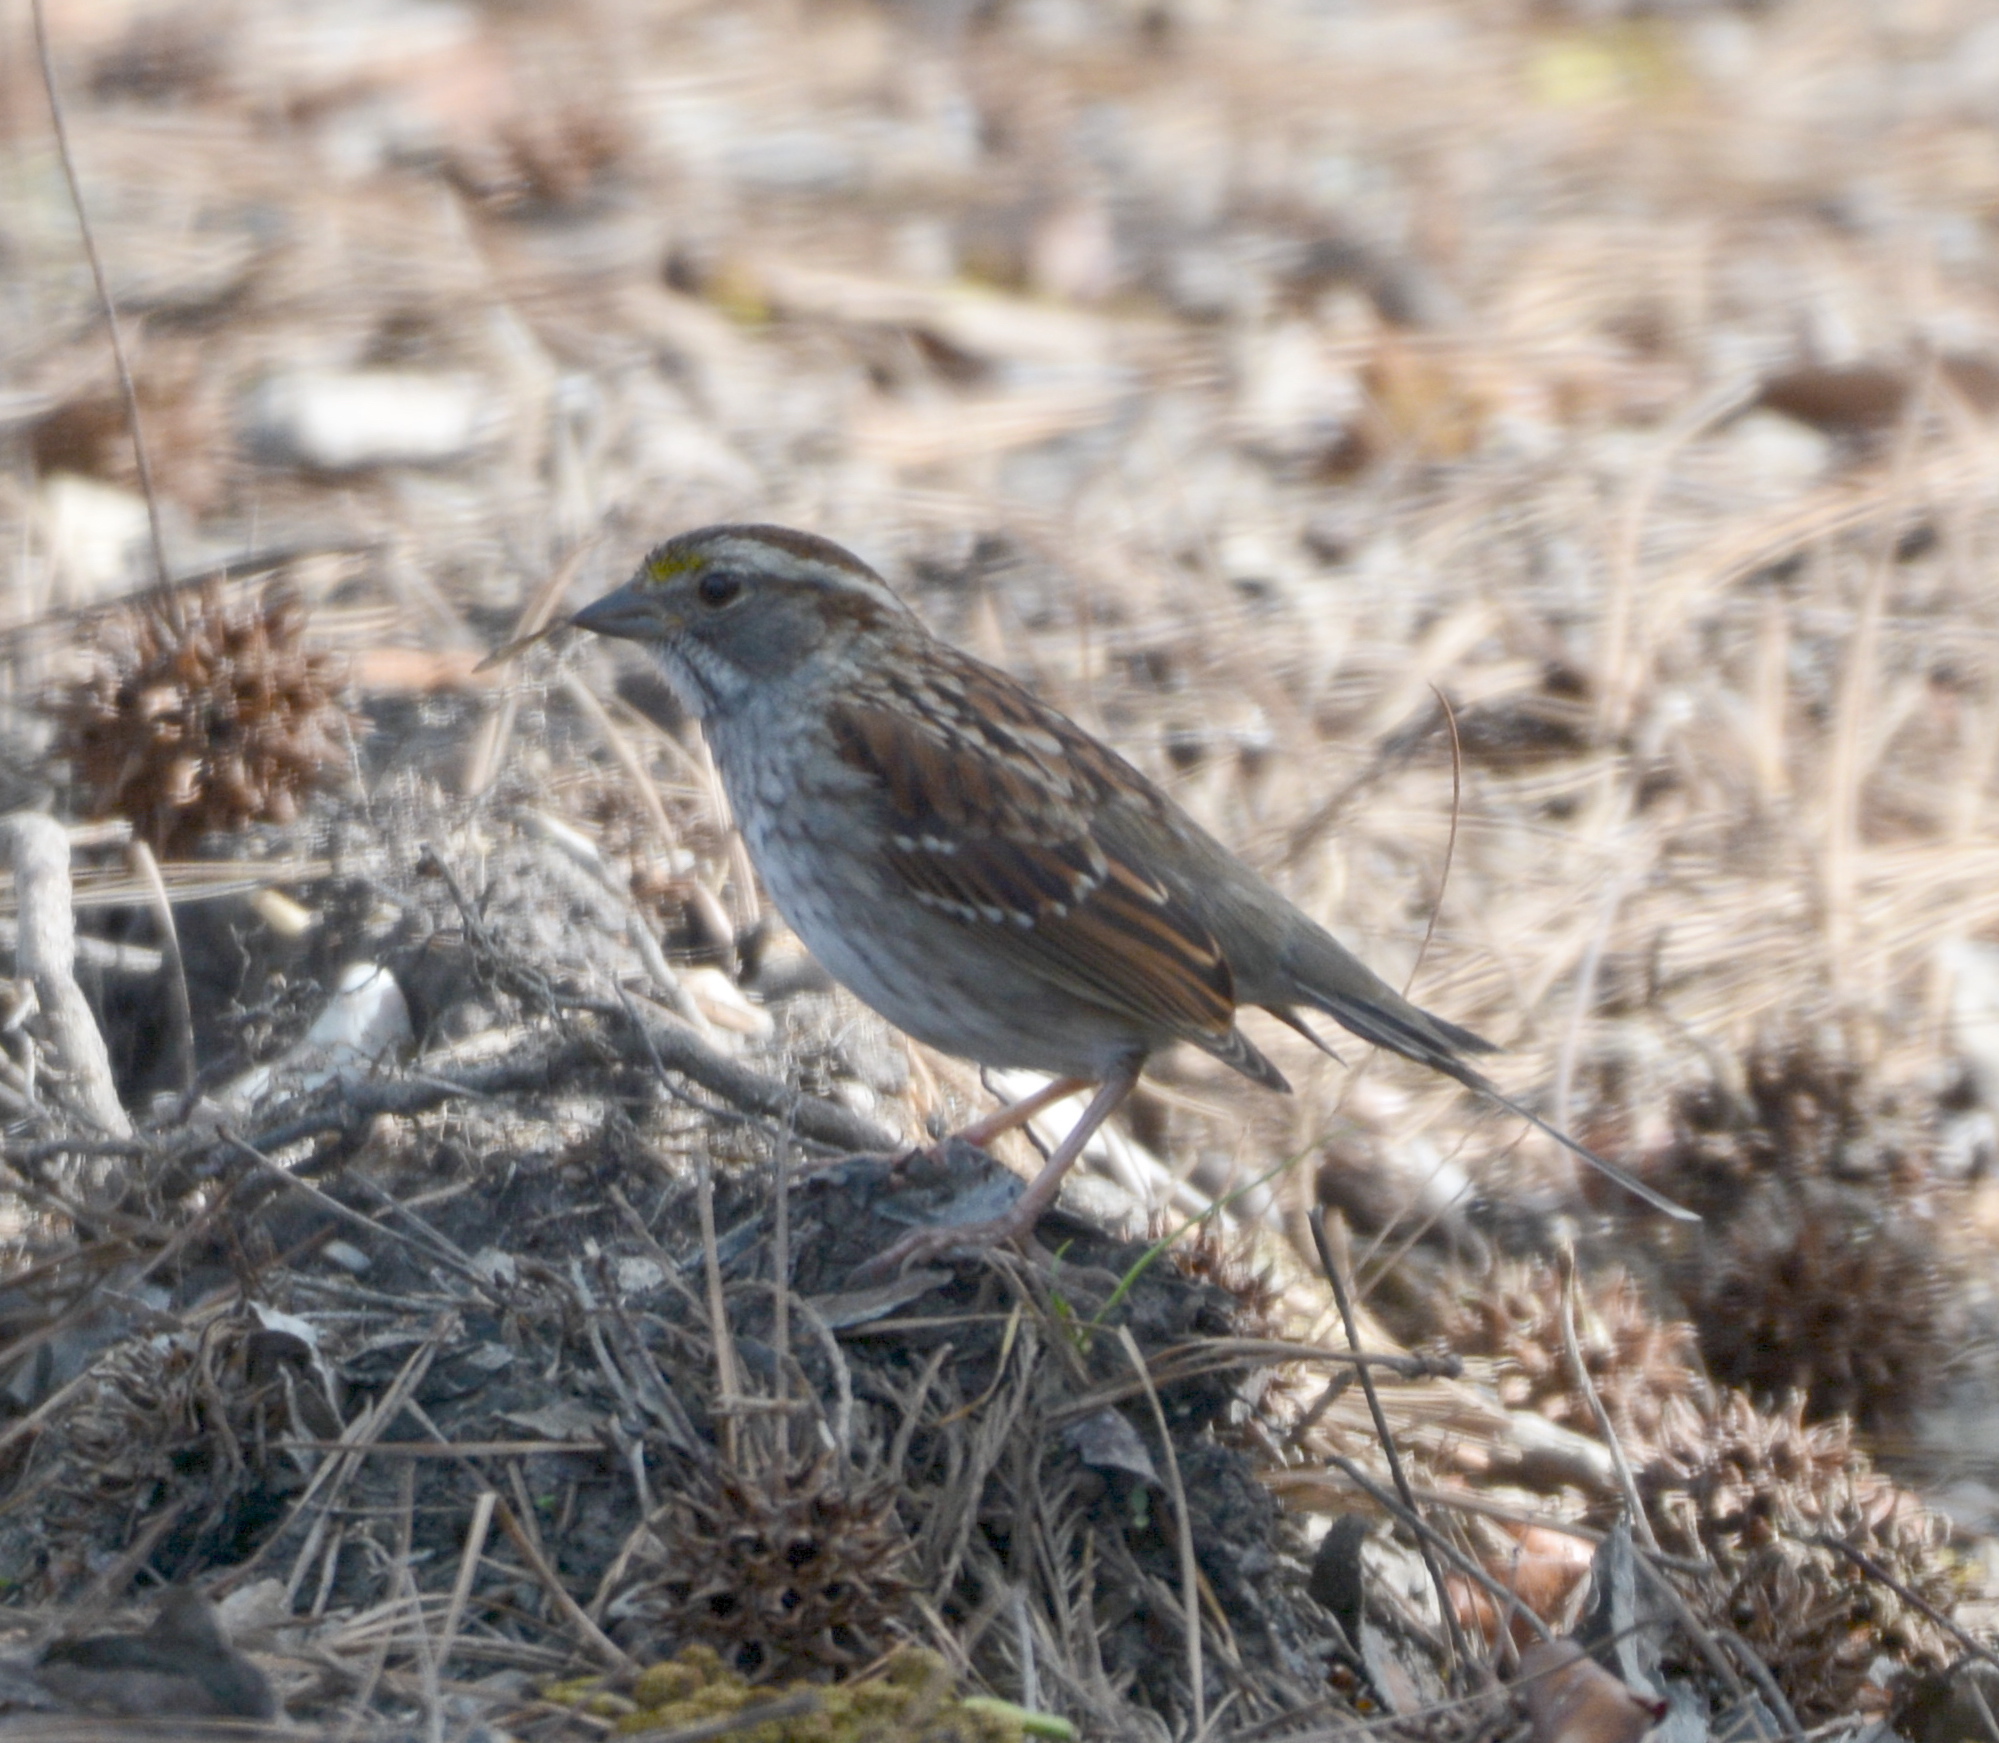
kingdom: Animalia
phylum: Chordata
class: Aves
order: Passeriformes
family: Passerellidae
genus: Zonotrichia
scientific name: Zonotrichia albicollis
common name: White-throated sparrow
